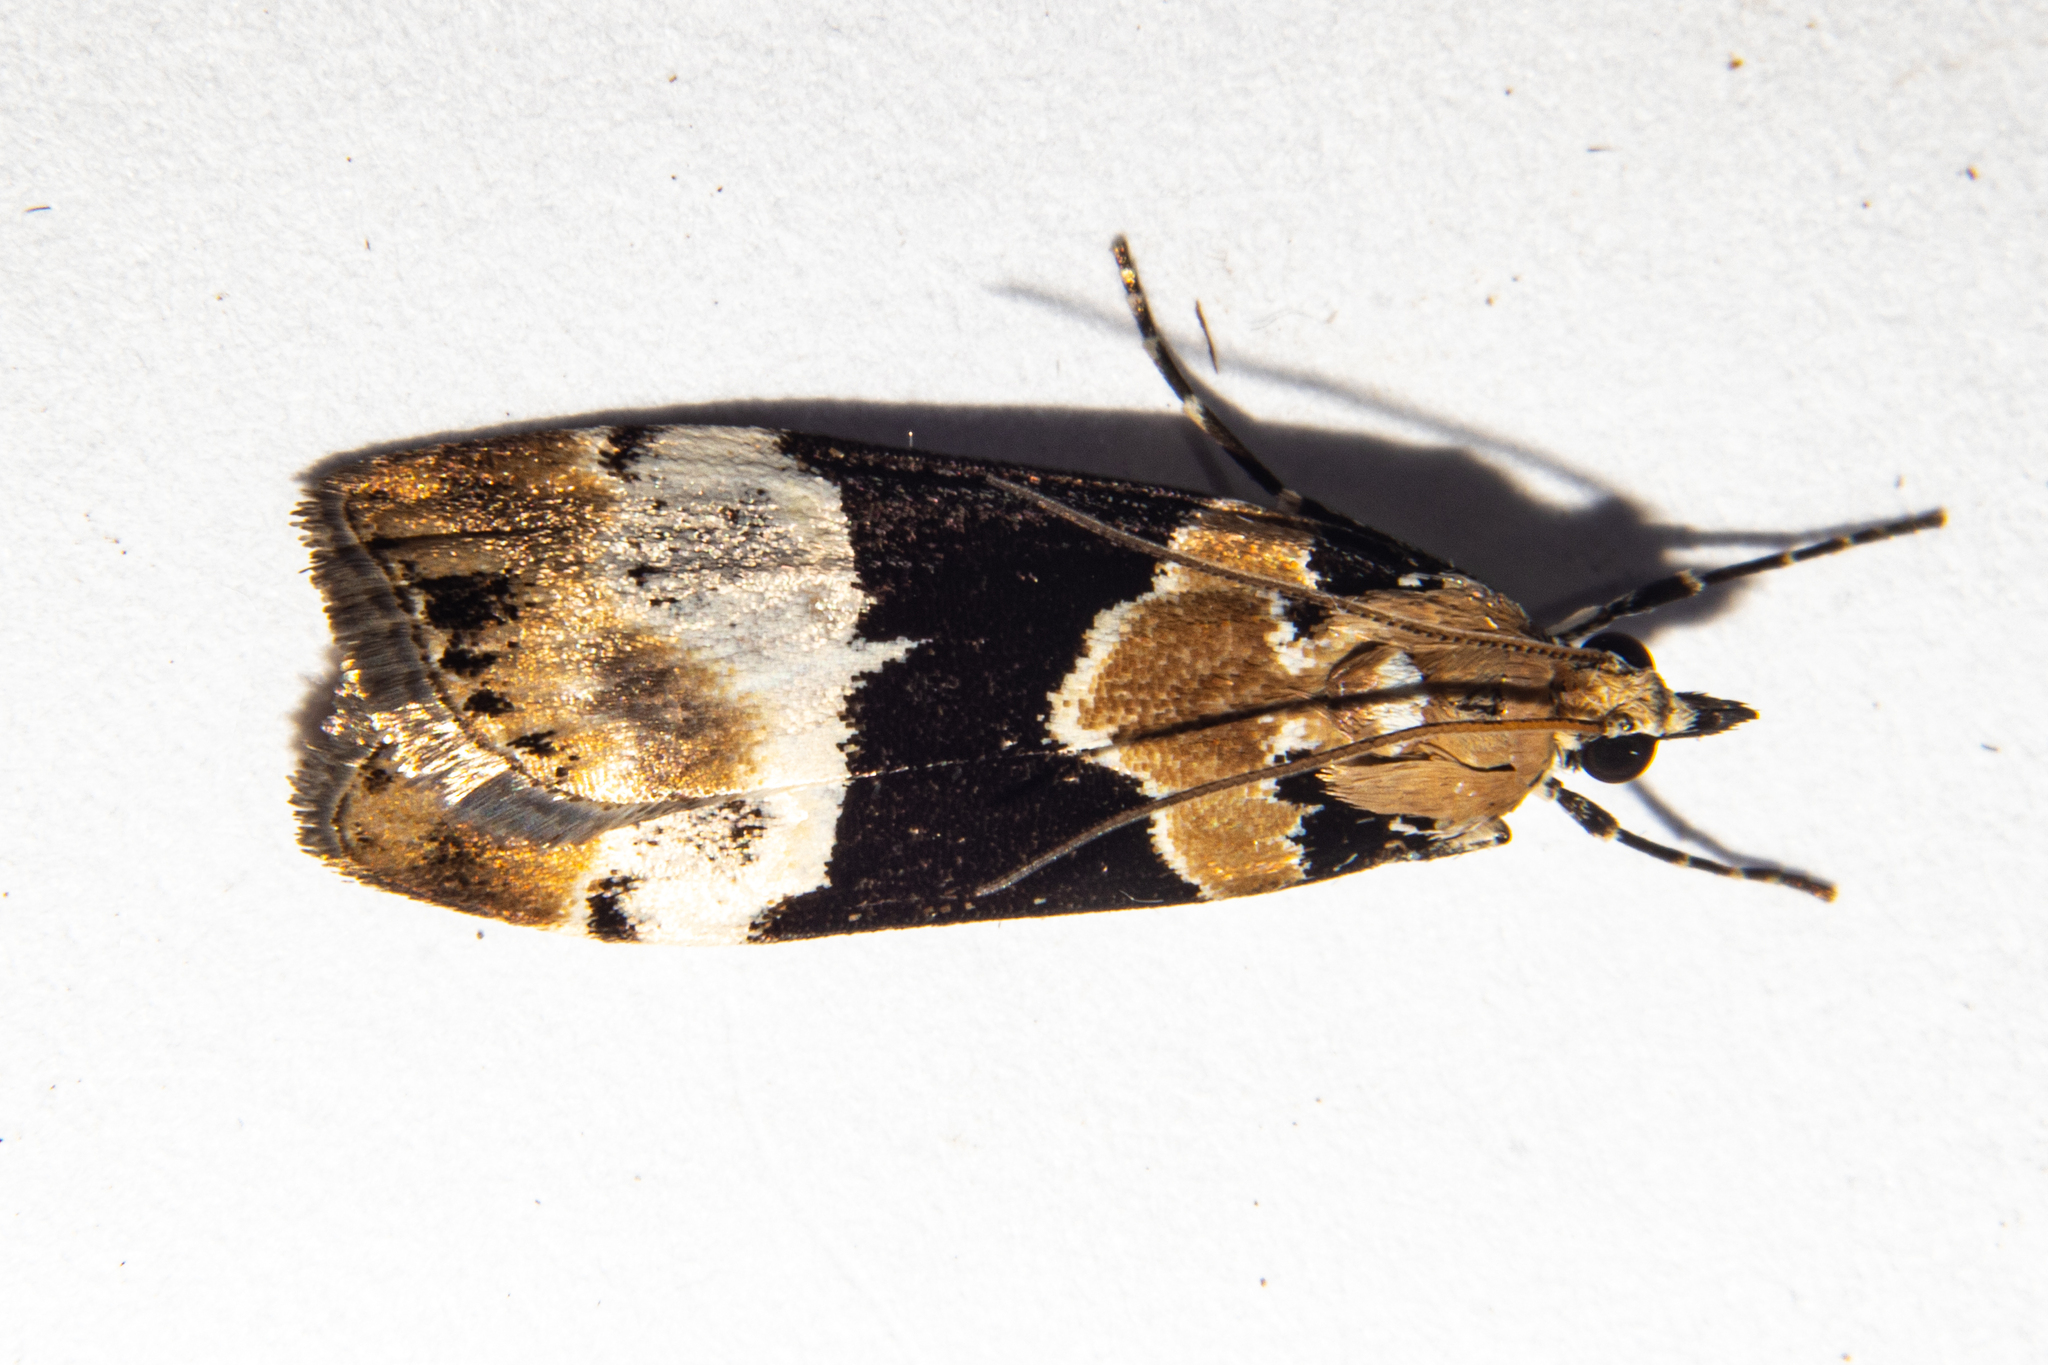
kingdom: Animalia
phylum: Arthropoda
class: Insecta
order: Lepidoptera
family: Crambidae
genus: Eudonia
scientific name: Eudonia aspidota
